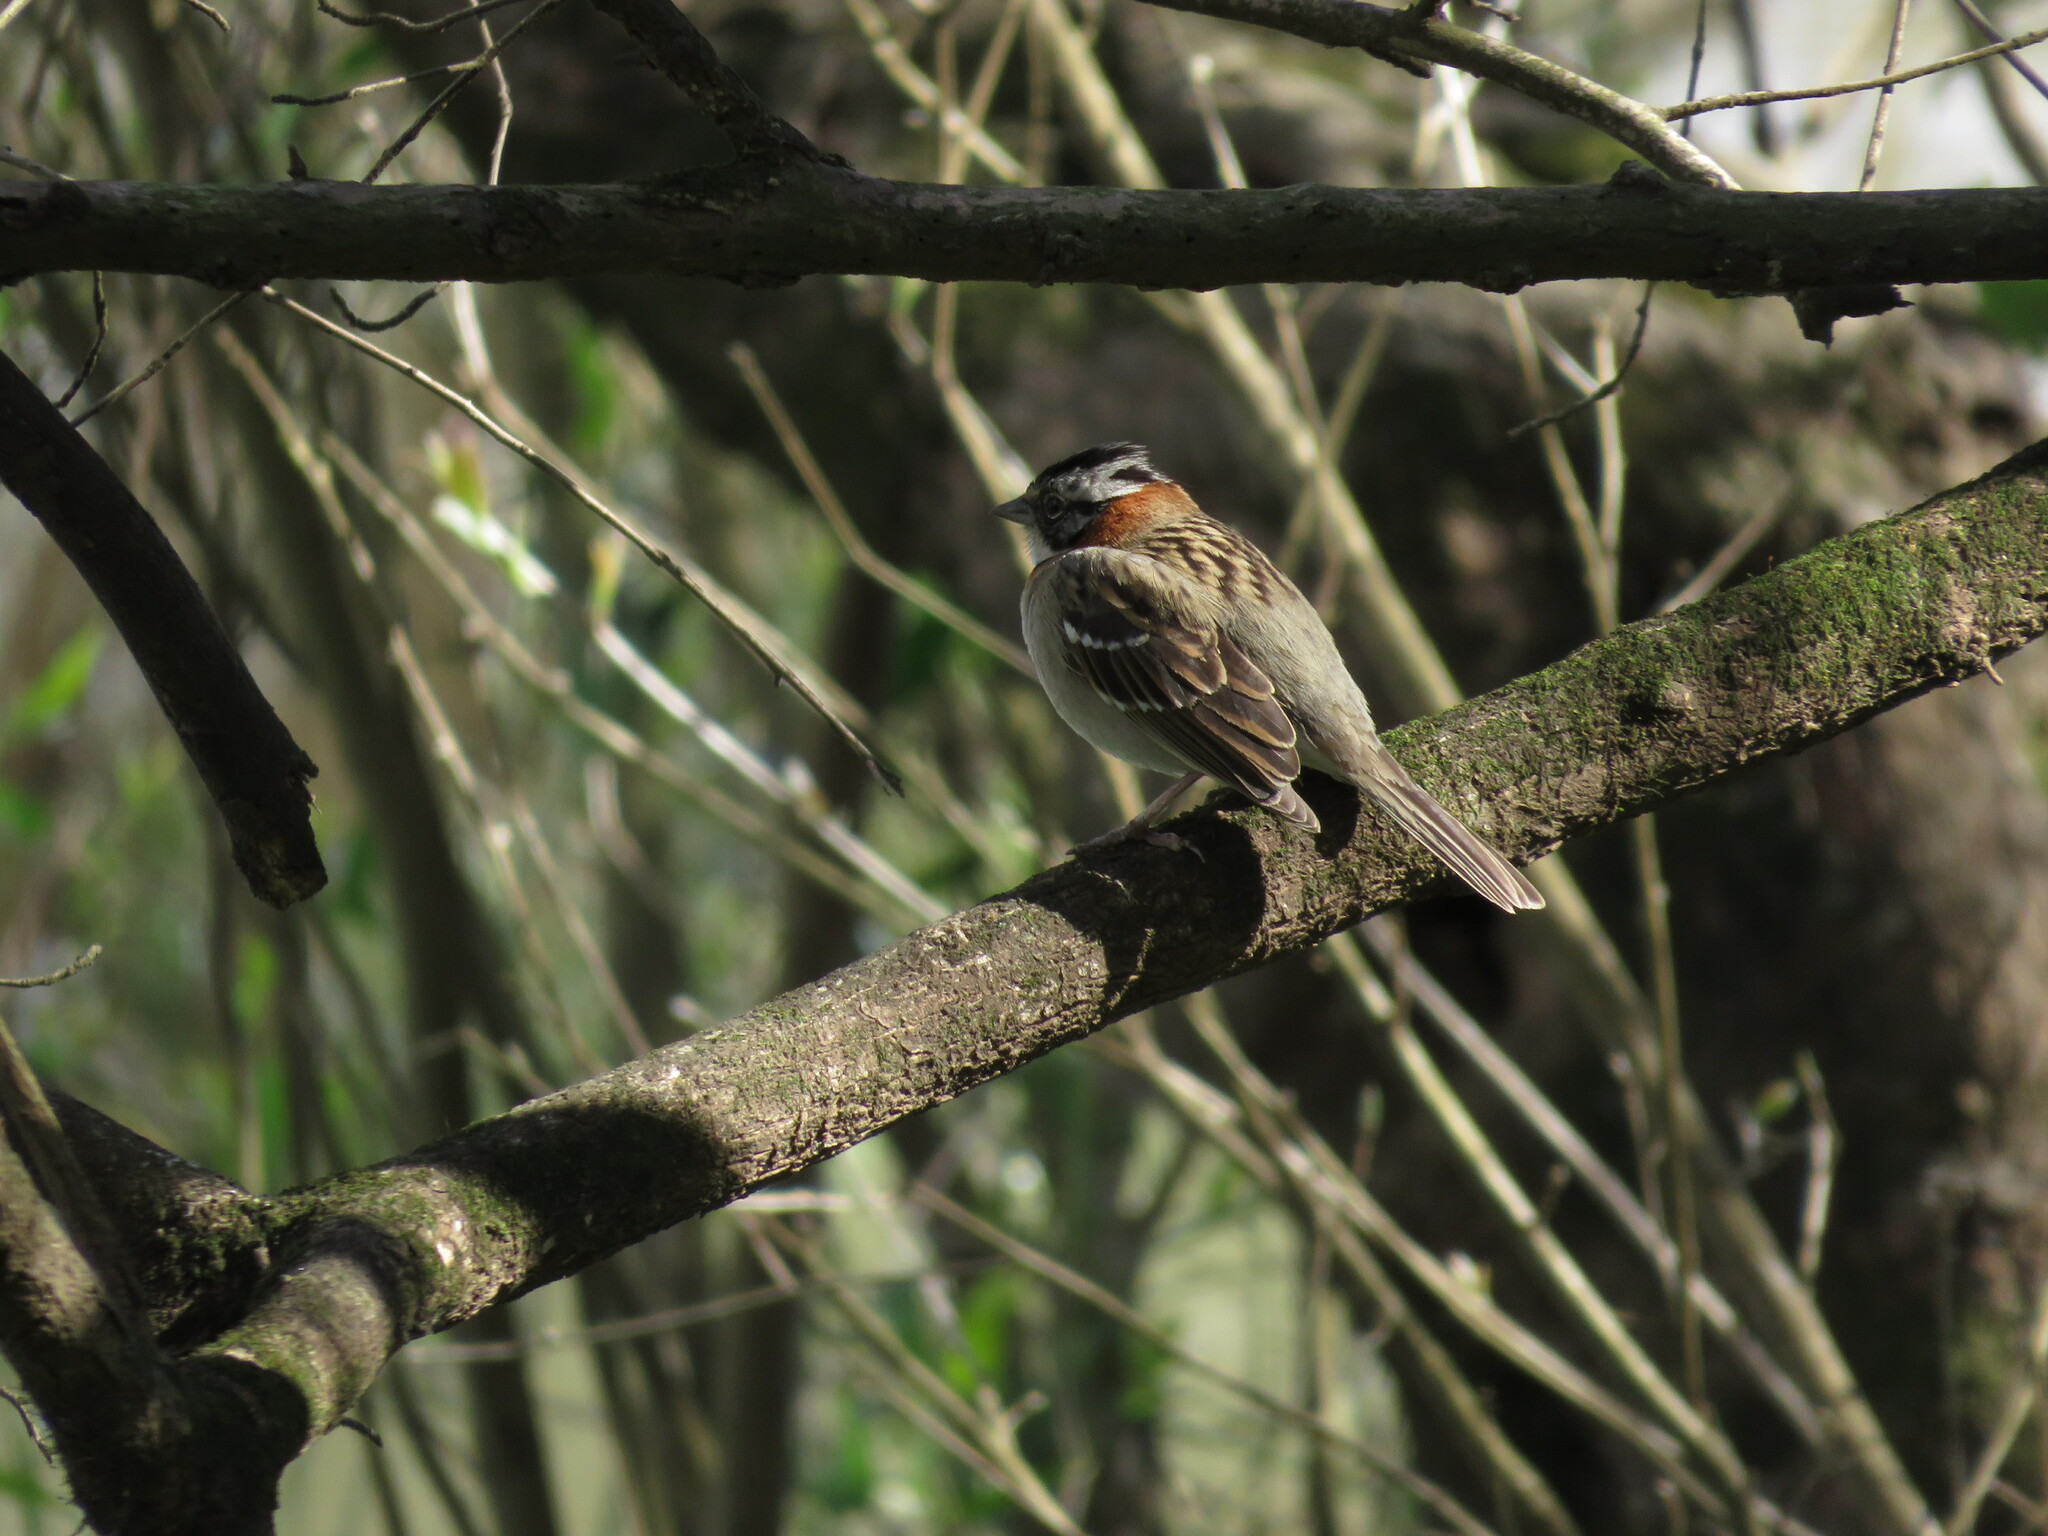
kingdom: Animalia
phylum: Chordata
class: Aves
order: Passeriformes
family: Passerellidae
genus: Zonotrichia
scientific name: Zonotrichia capensis
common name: Rufous-collared sparrow
